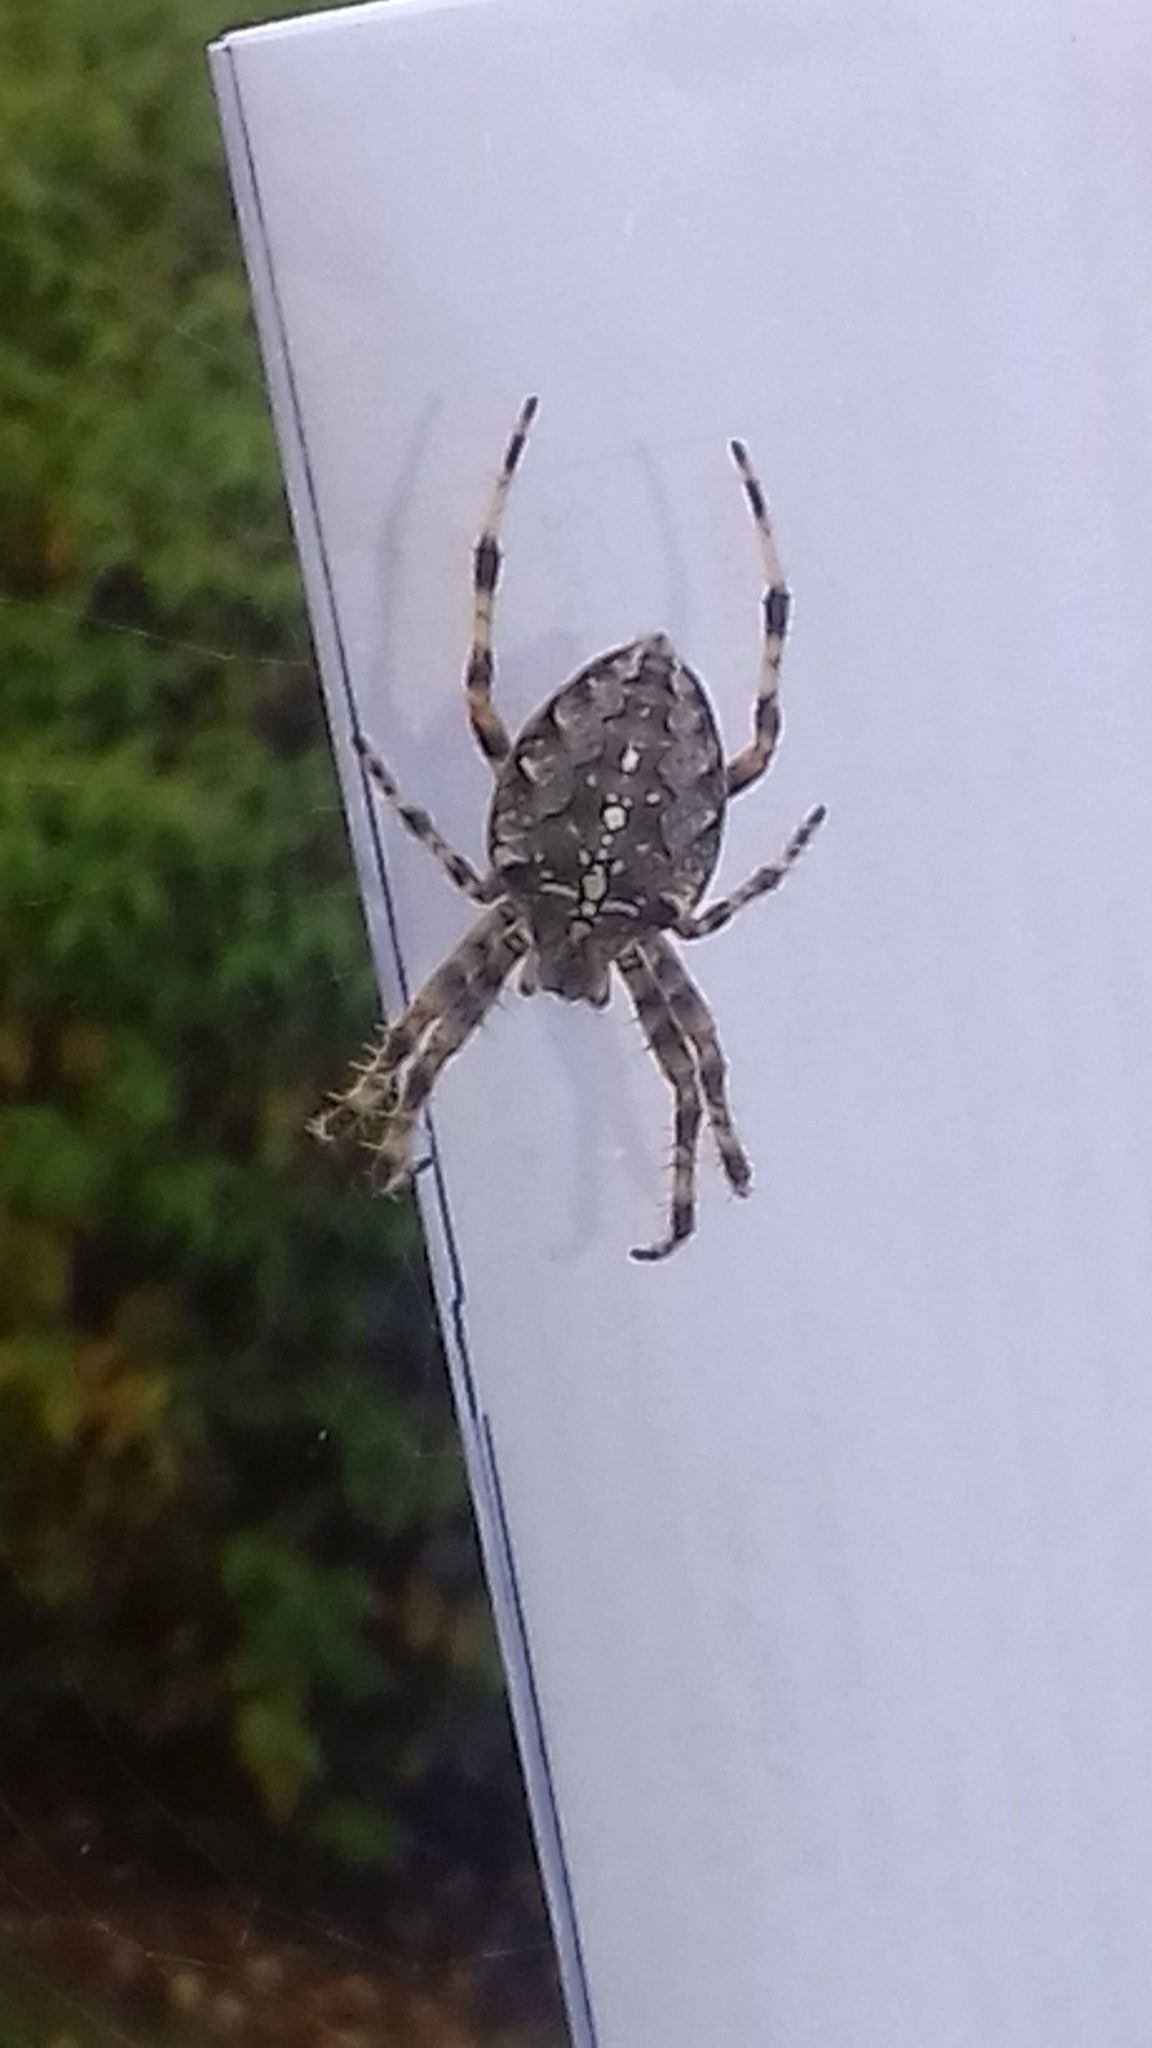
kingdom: Animalia
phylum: Arthropoda
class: Arachnida
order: Araneae
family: Araneidae
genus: Araneus
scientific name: Araneus diadematus
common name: Cross orbweaver
